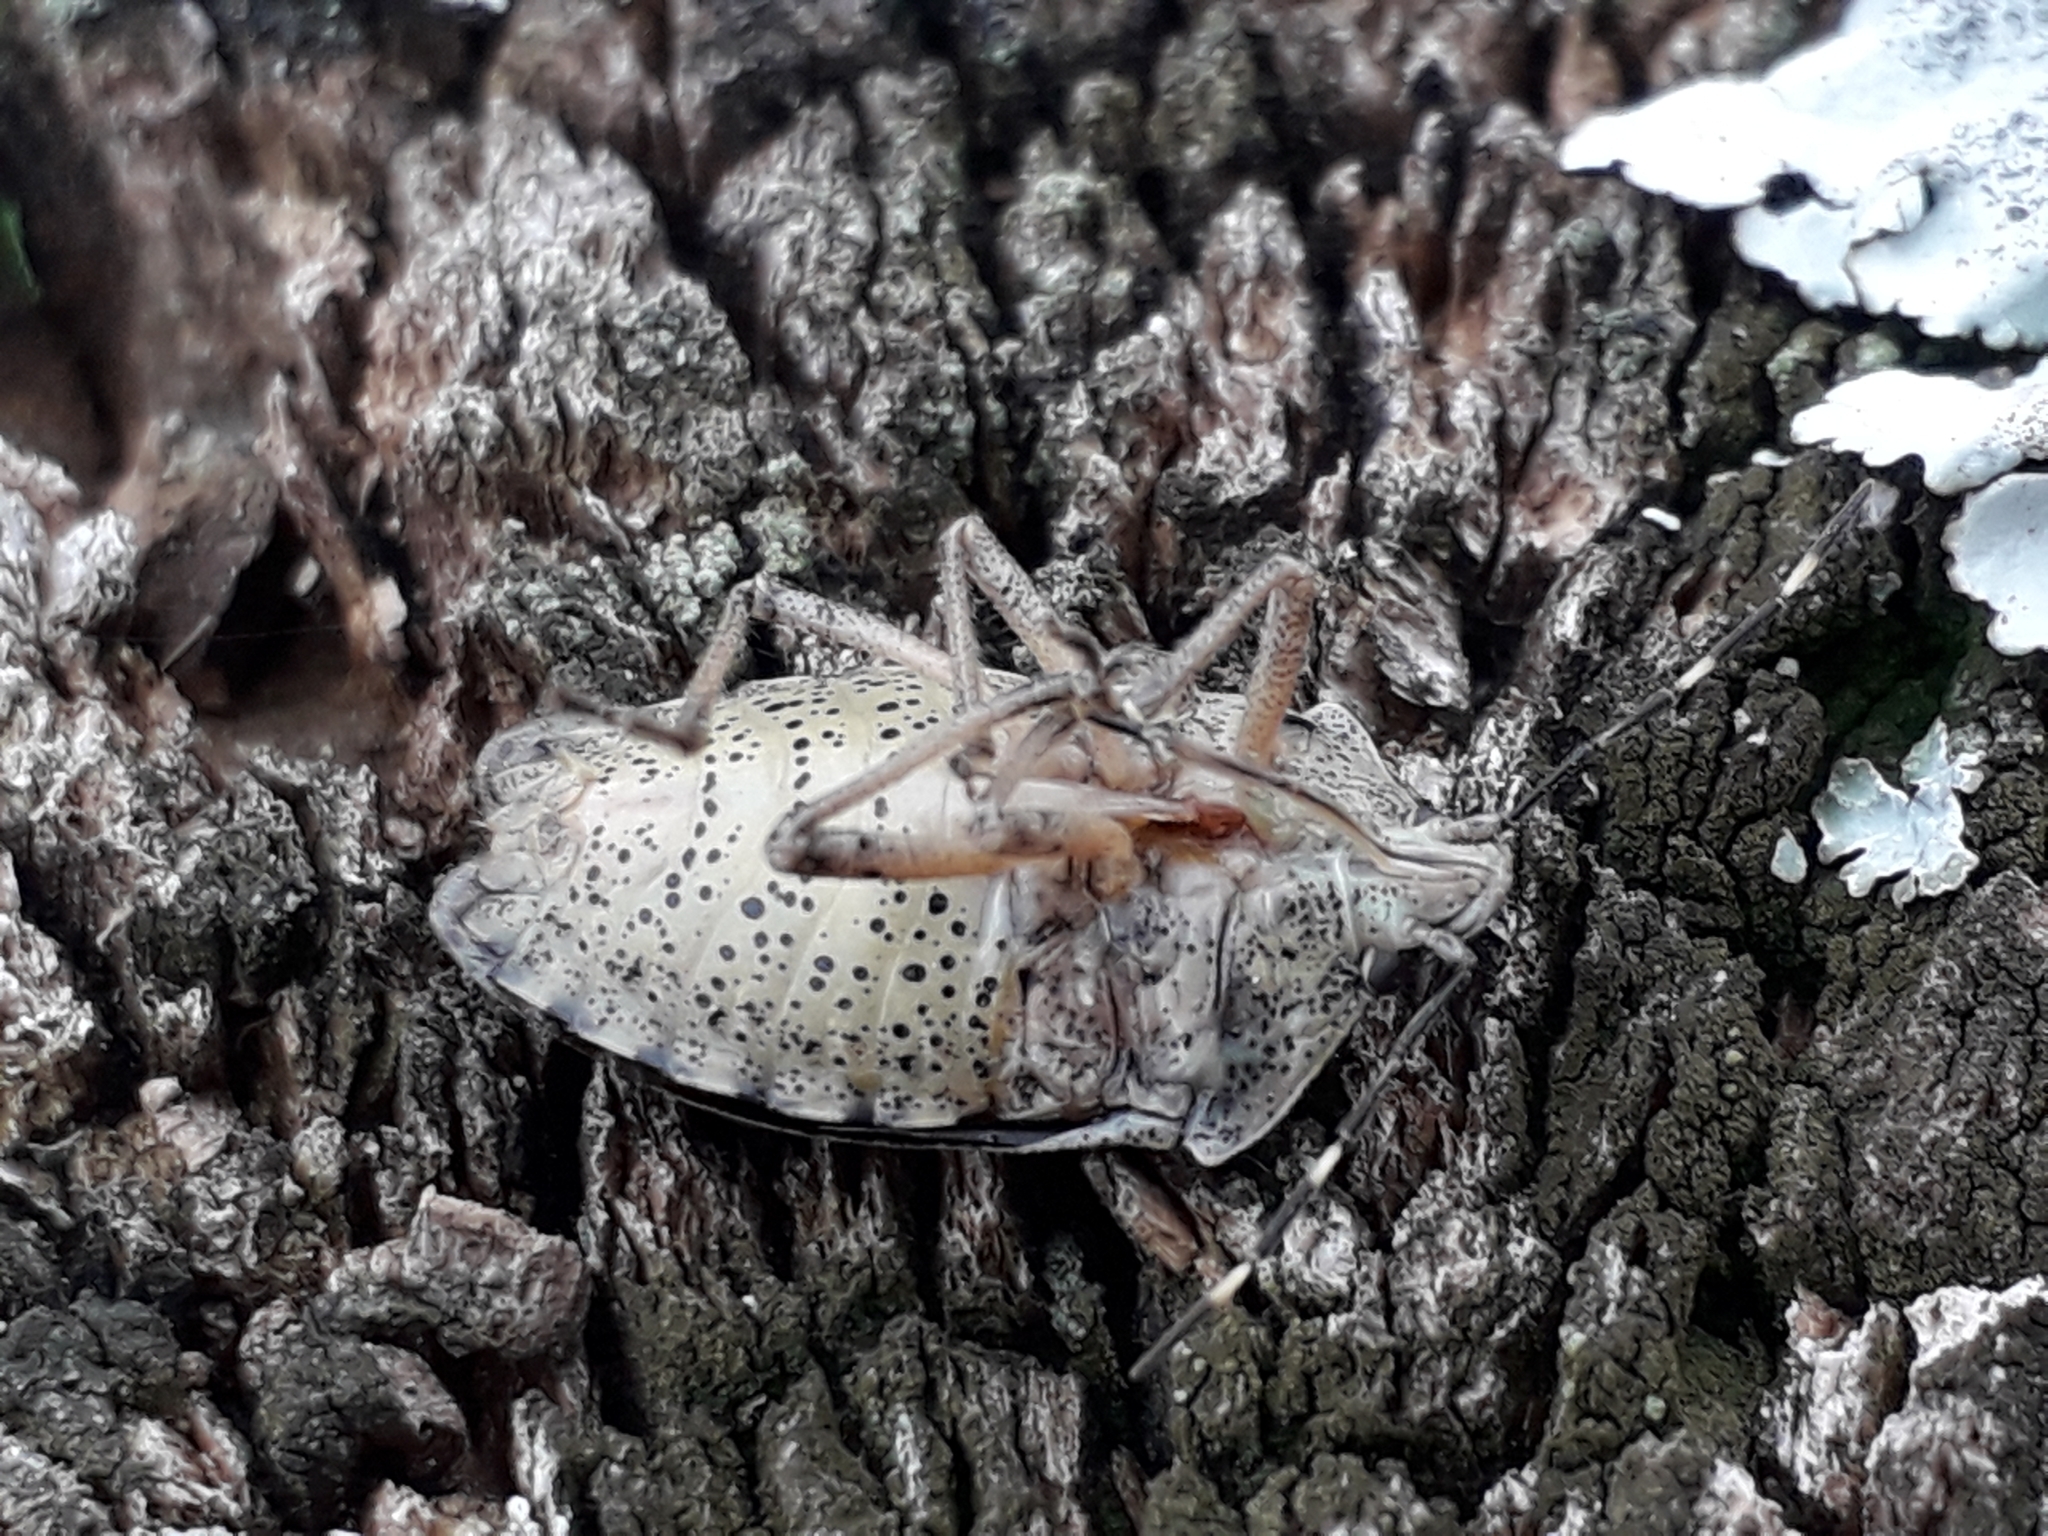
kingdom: Animalia
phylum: Arthropoda
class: Insecta
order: Hemiptera
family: Pentatomidae
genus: Rhaphigaster
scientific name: Rhaphigaster nebulosa
